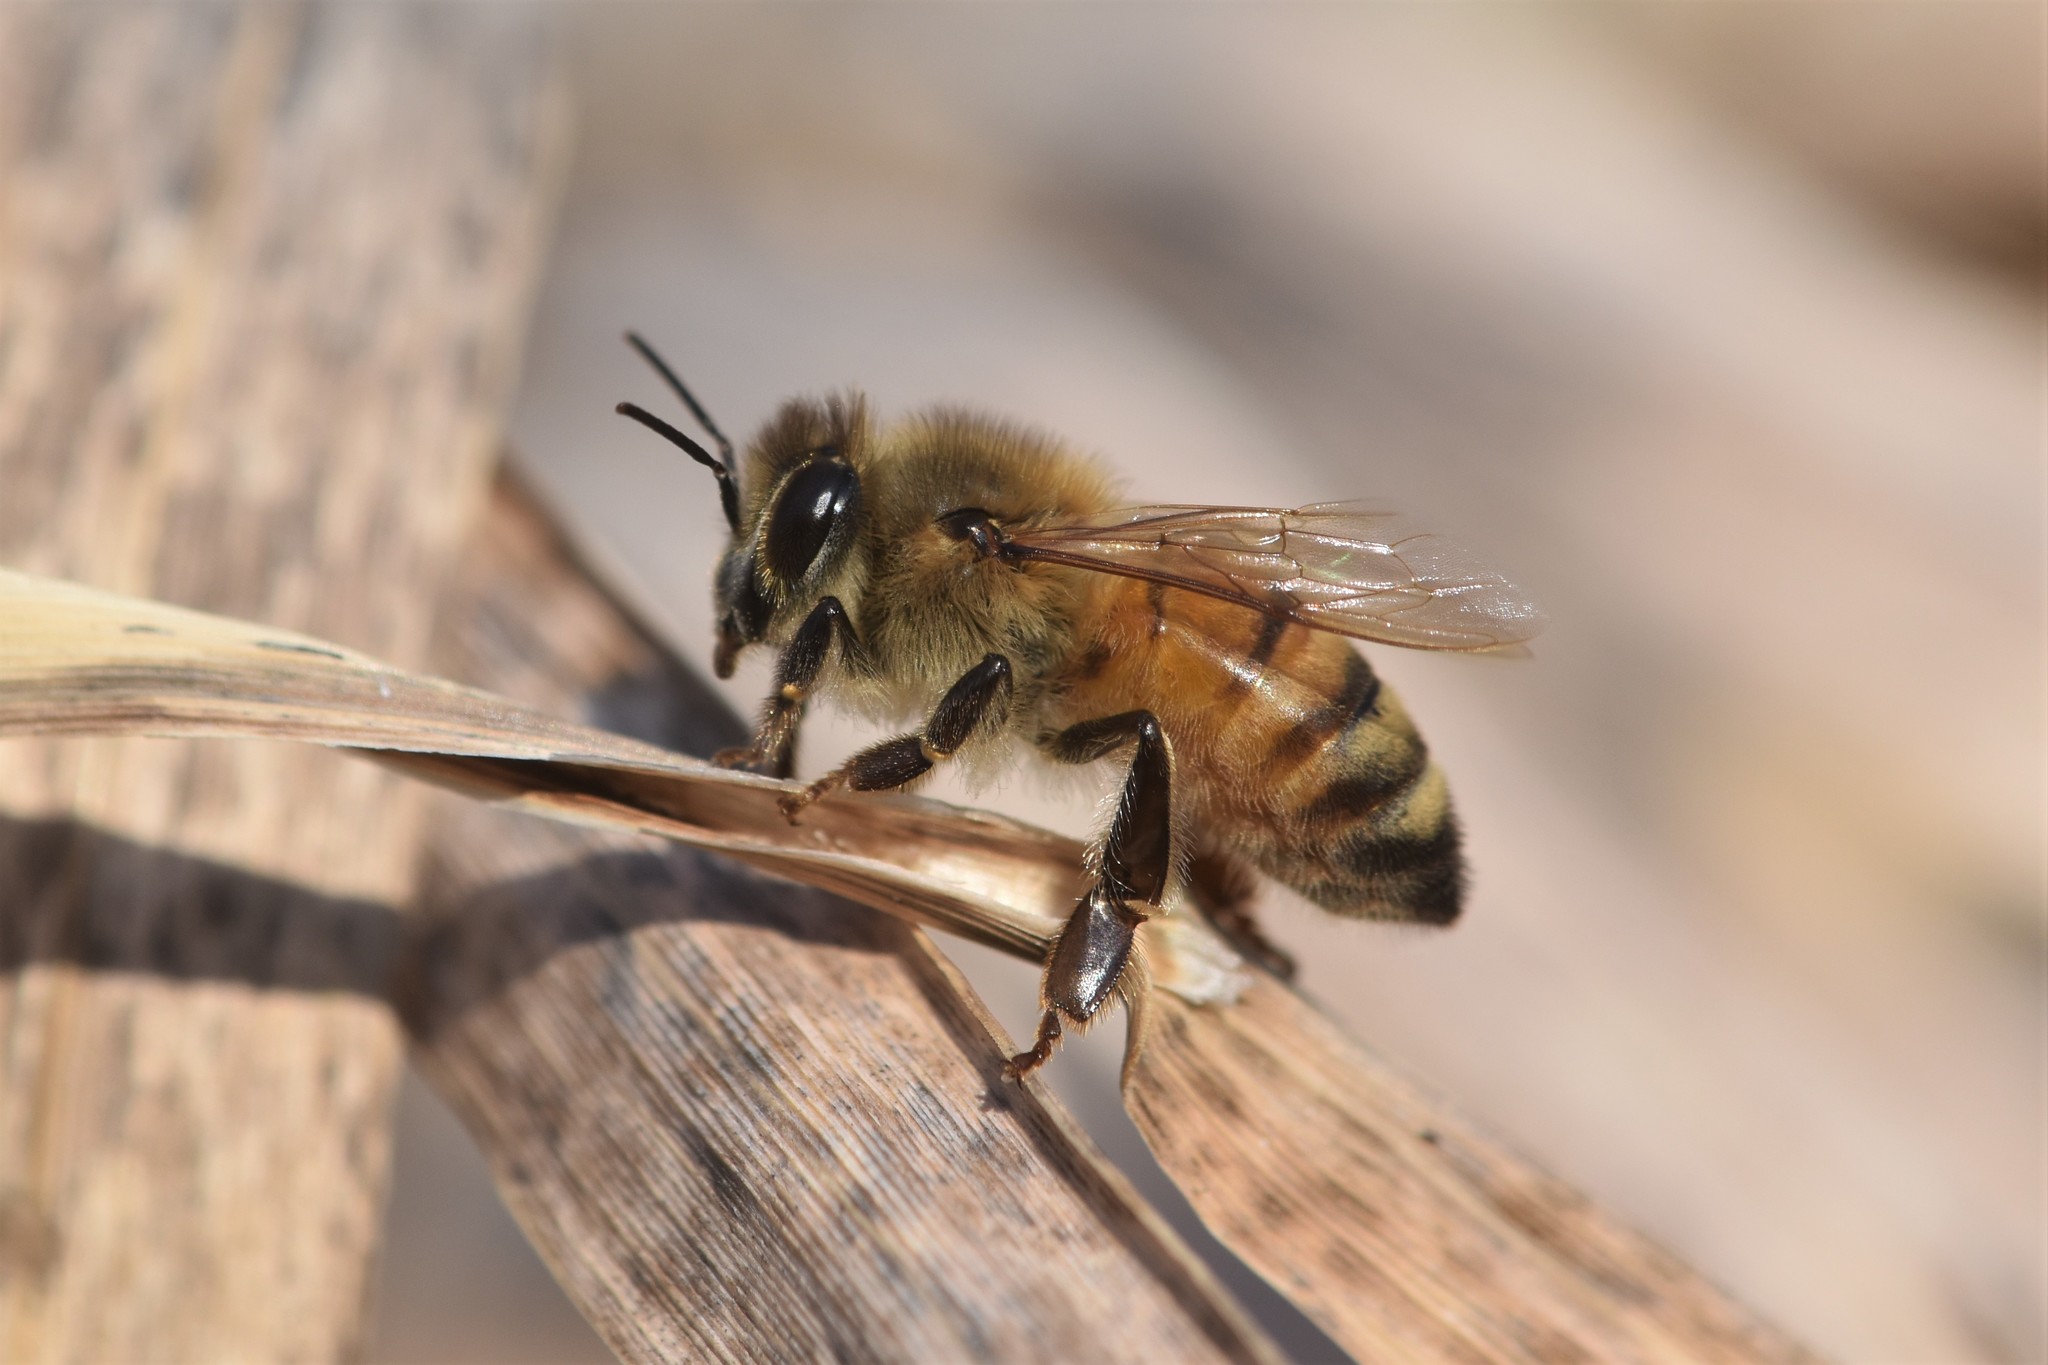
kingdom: Animalia
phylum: Arthropoda
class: Insecta
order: Hymenoptera
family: Apidae
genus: Apis
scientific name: Apis mellifera
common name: Honey bee
